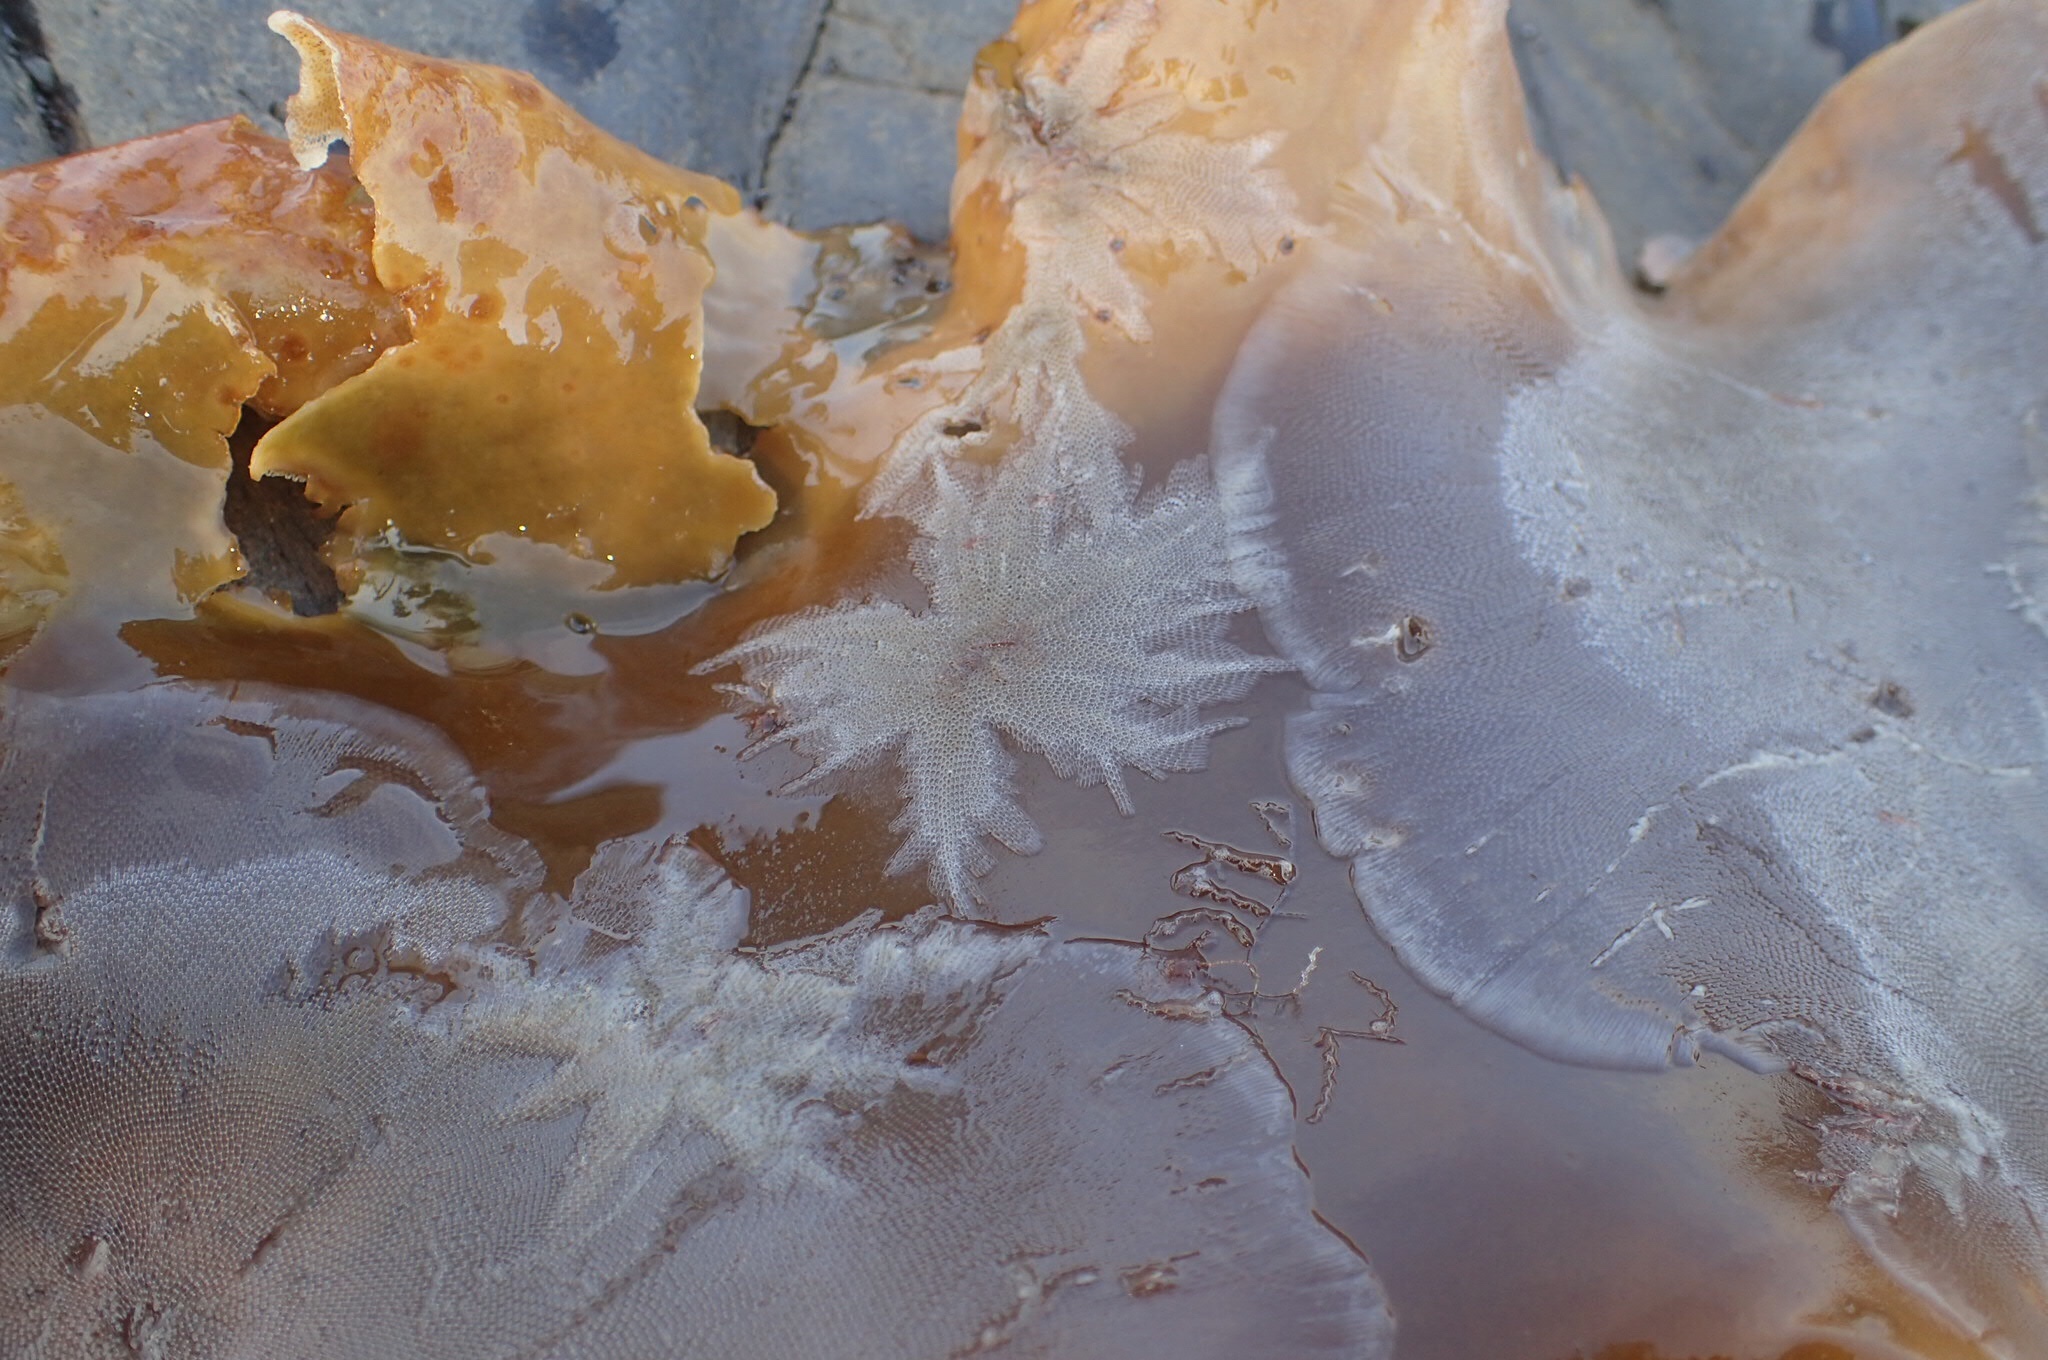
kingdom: Animalia
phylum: Bryozoa
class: Gymnolaemata
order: Cheilostomatida
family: Electridae
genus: Electra
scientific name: Electra pilosa
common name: Hairy sea-mat
